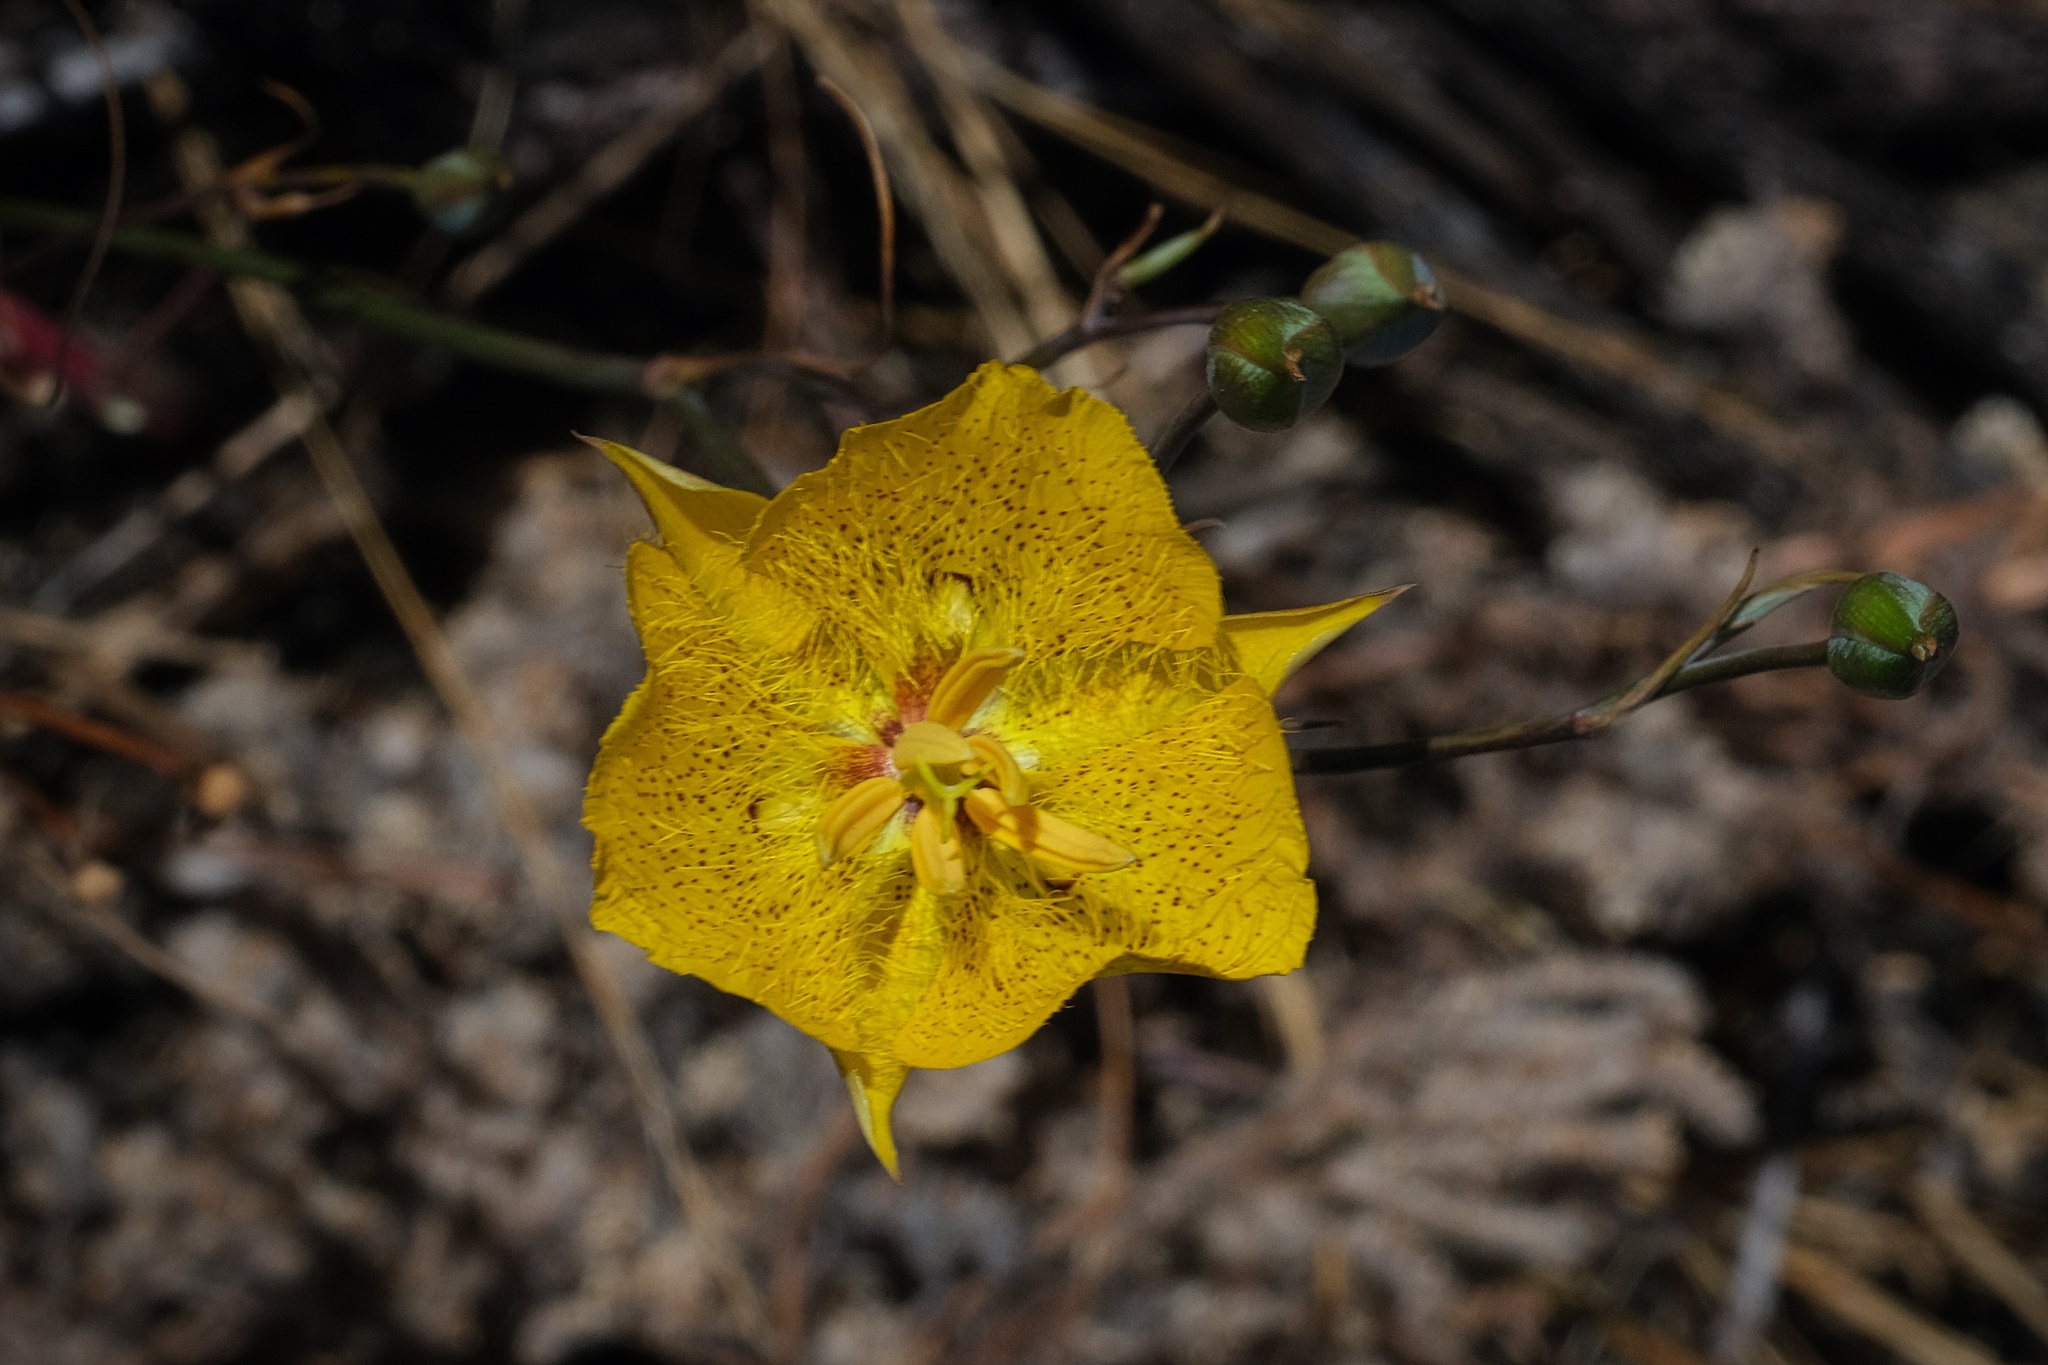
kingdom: Plantae
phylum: Tracheophyta
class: Liliopsida
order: Liliales
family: Liliaceae
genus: Calochortus
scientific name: Calochortus weedii
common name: Weed's mariposa-lily
